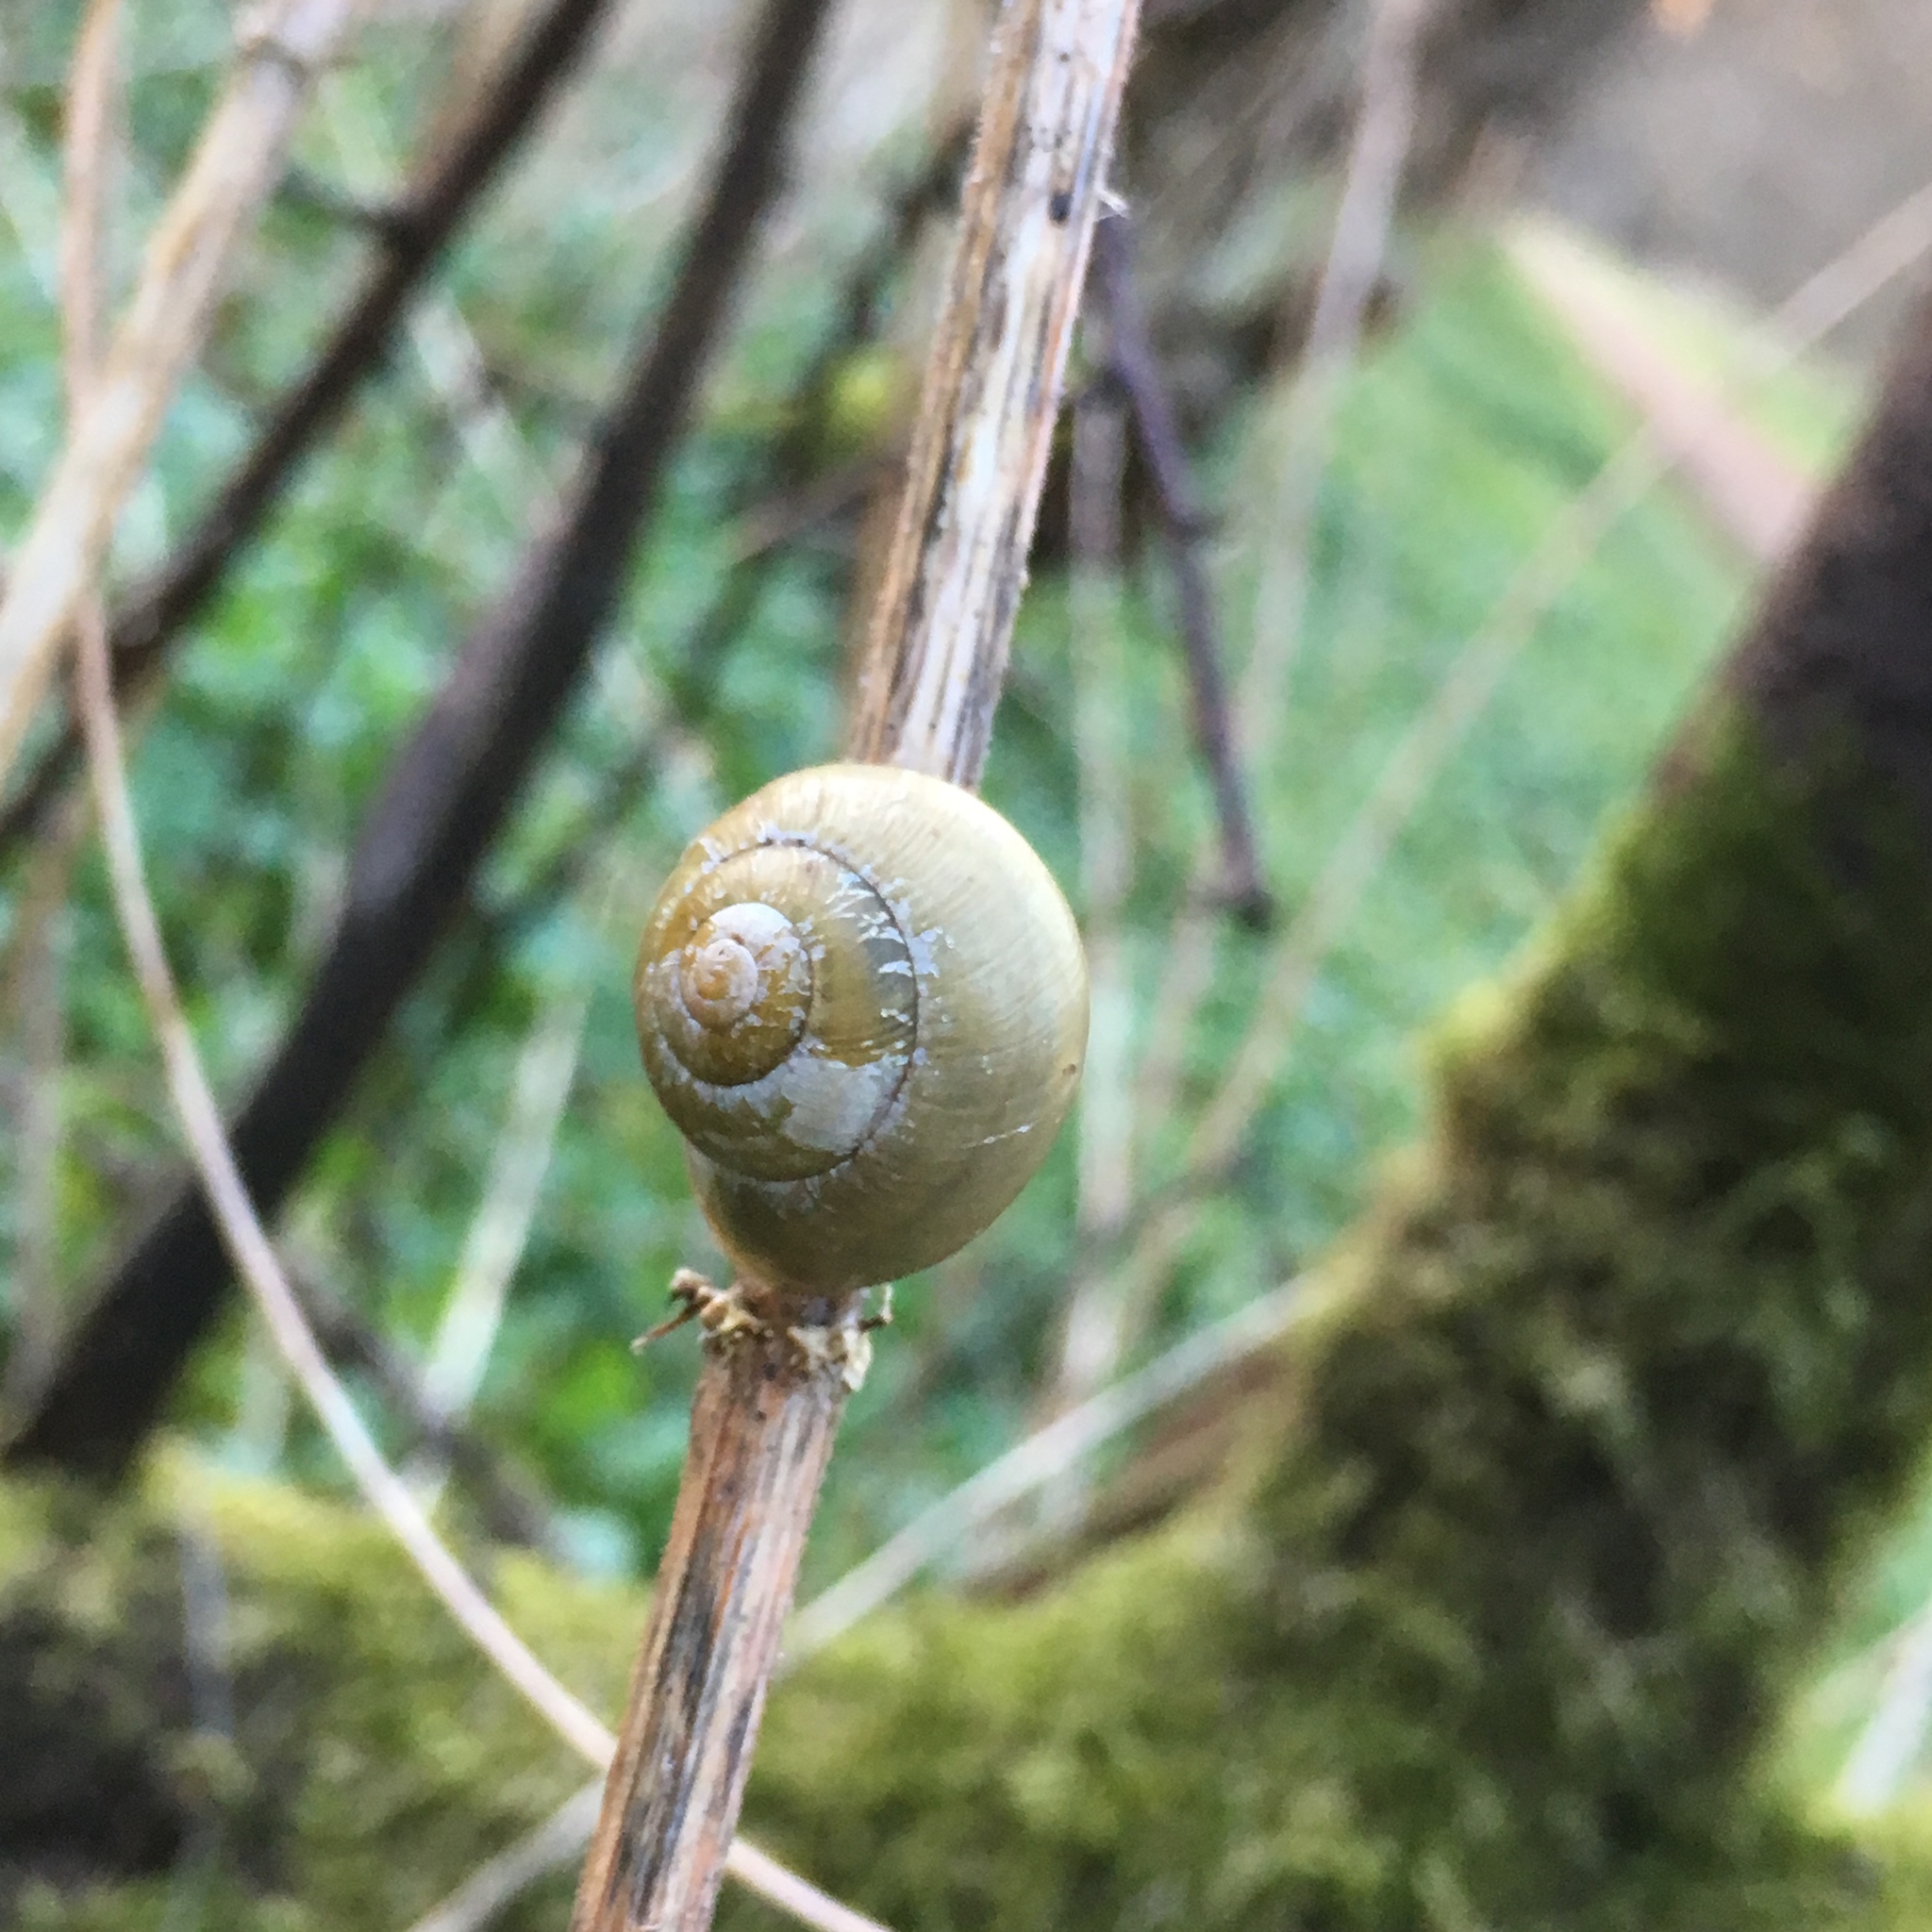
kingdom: Animalia
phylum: Mollusca
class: Gastropoda
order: Stylommatophora
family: Helicidae
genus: Cepaea
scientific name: Cepaea nemoralis
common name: Grovesnail
